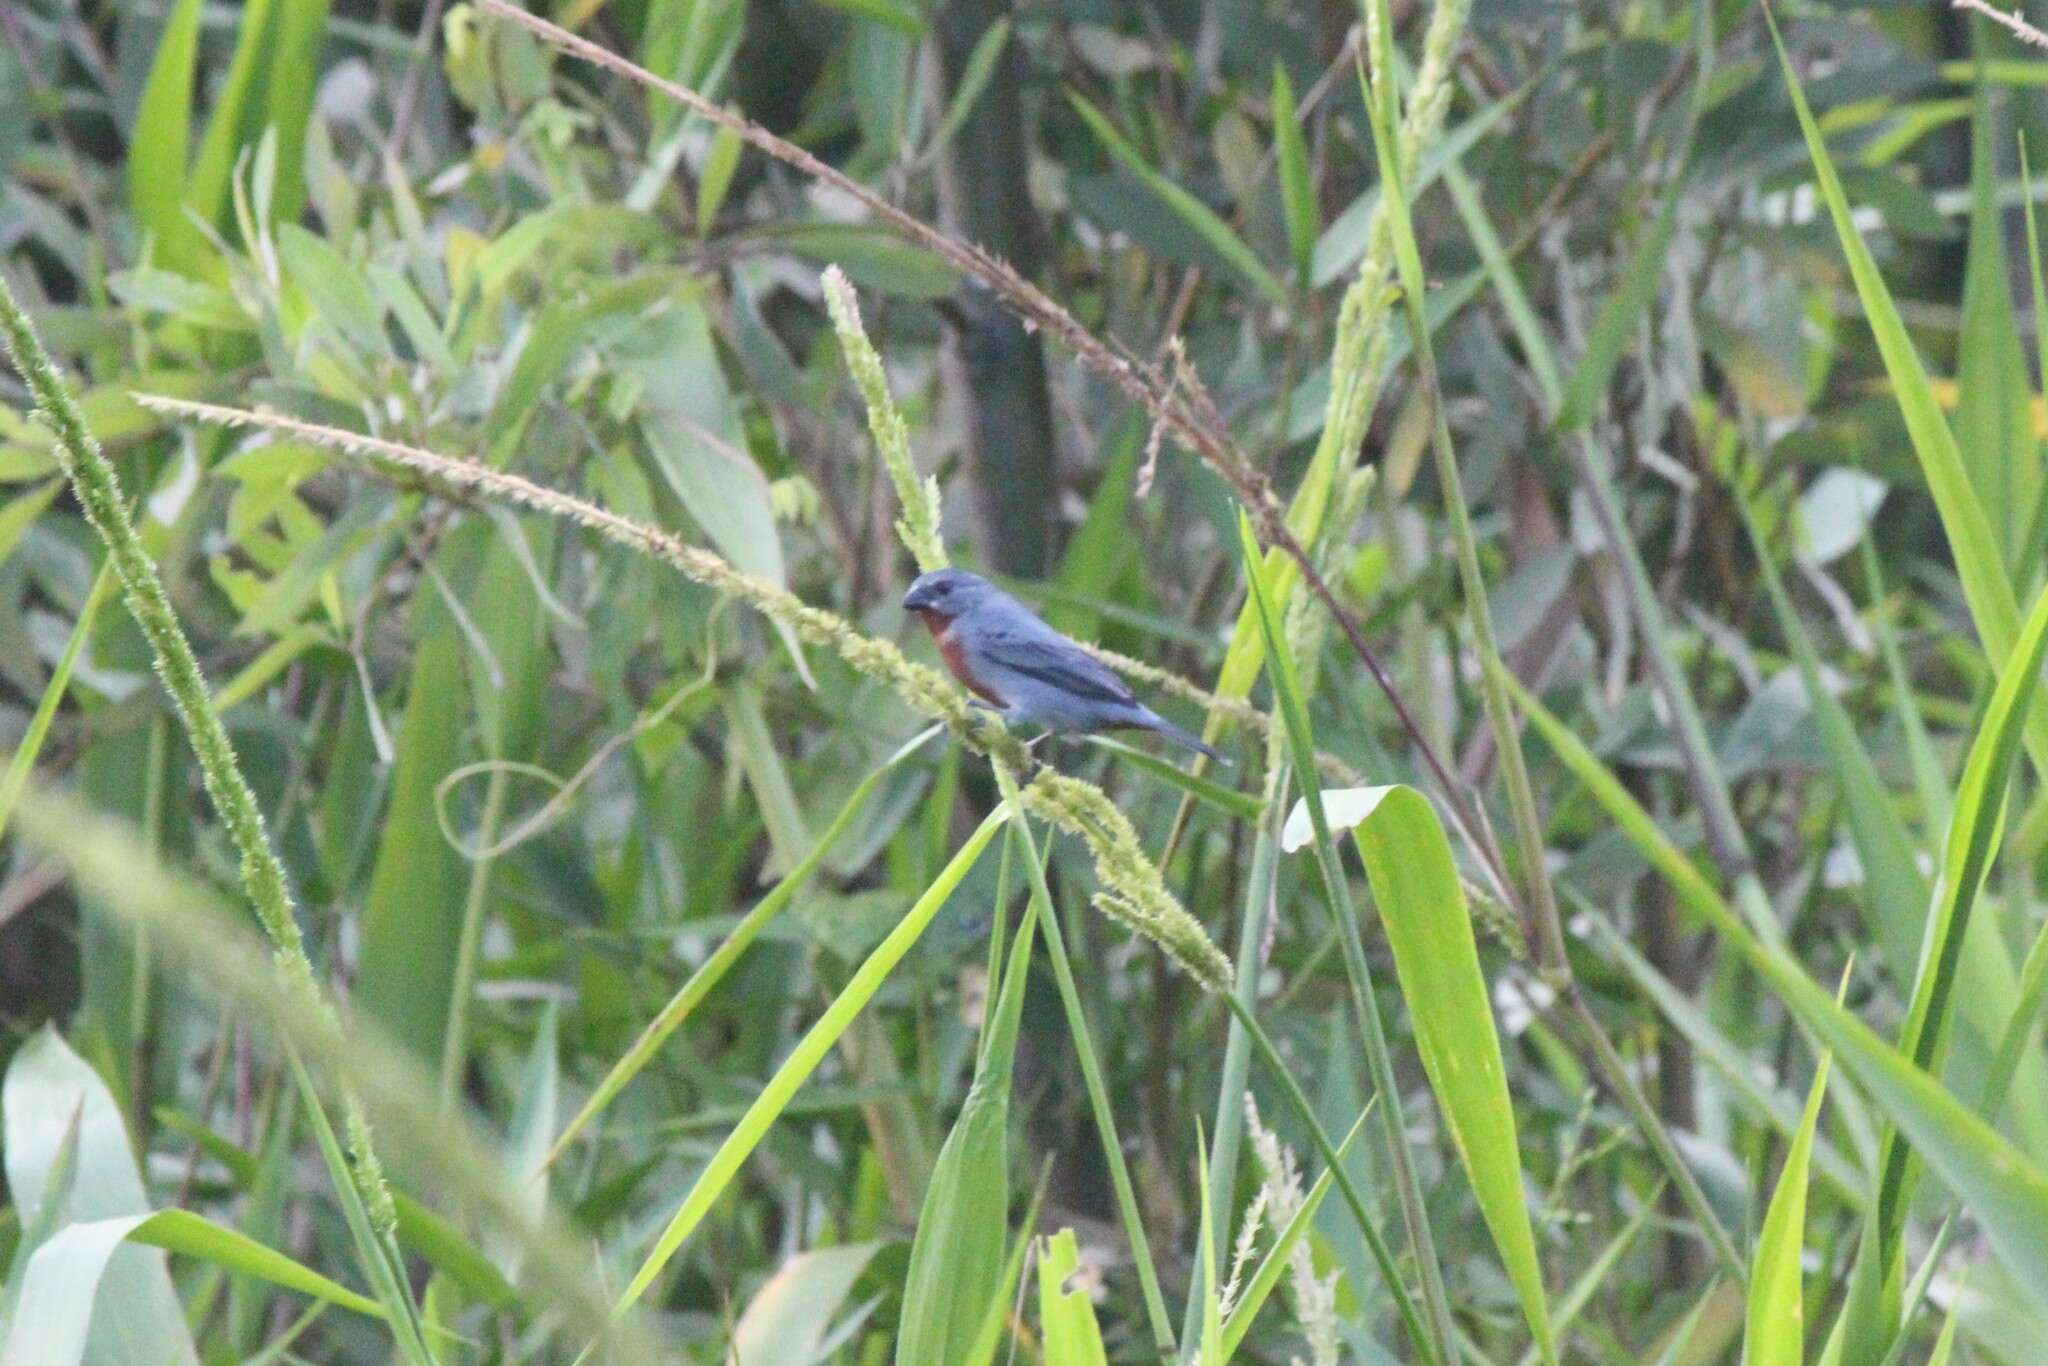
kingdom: Animalia
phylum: Chordata
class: Aves
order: Passeriformes
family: Thraupidae
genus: Sporophila
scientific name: Sporophila castaneiventris
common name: Chestnut-bellied seedeater
